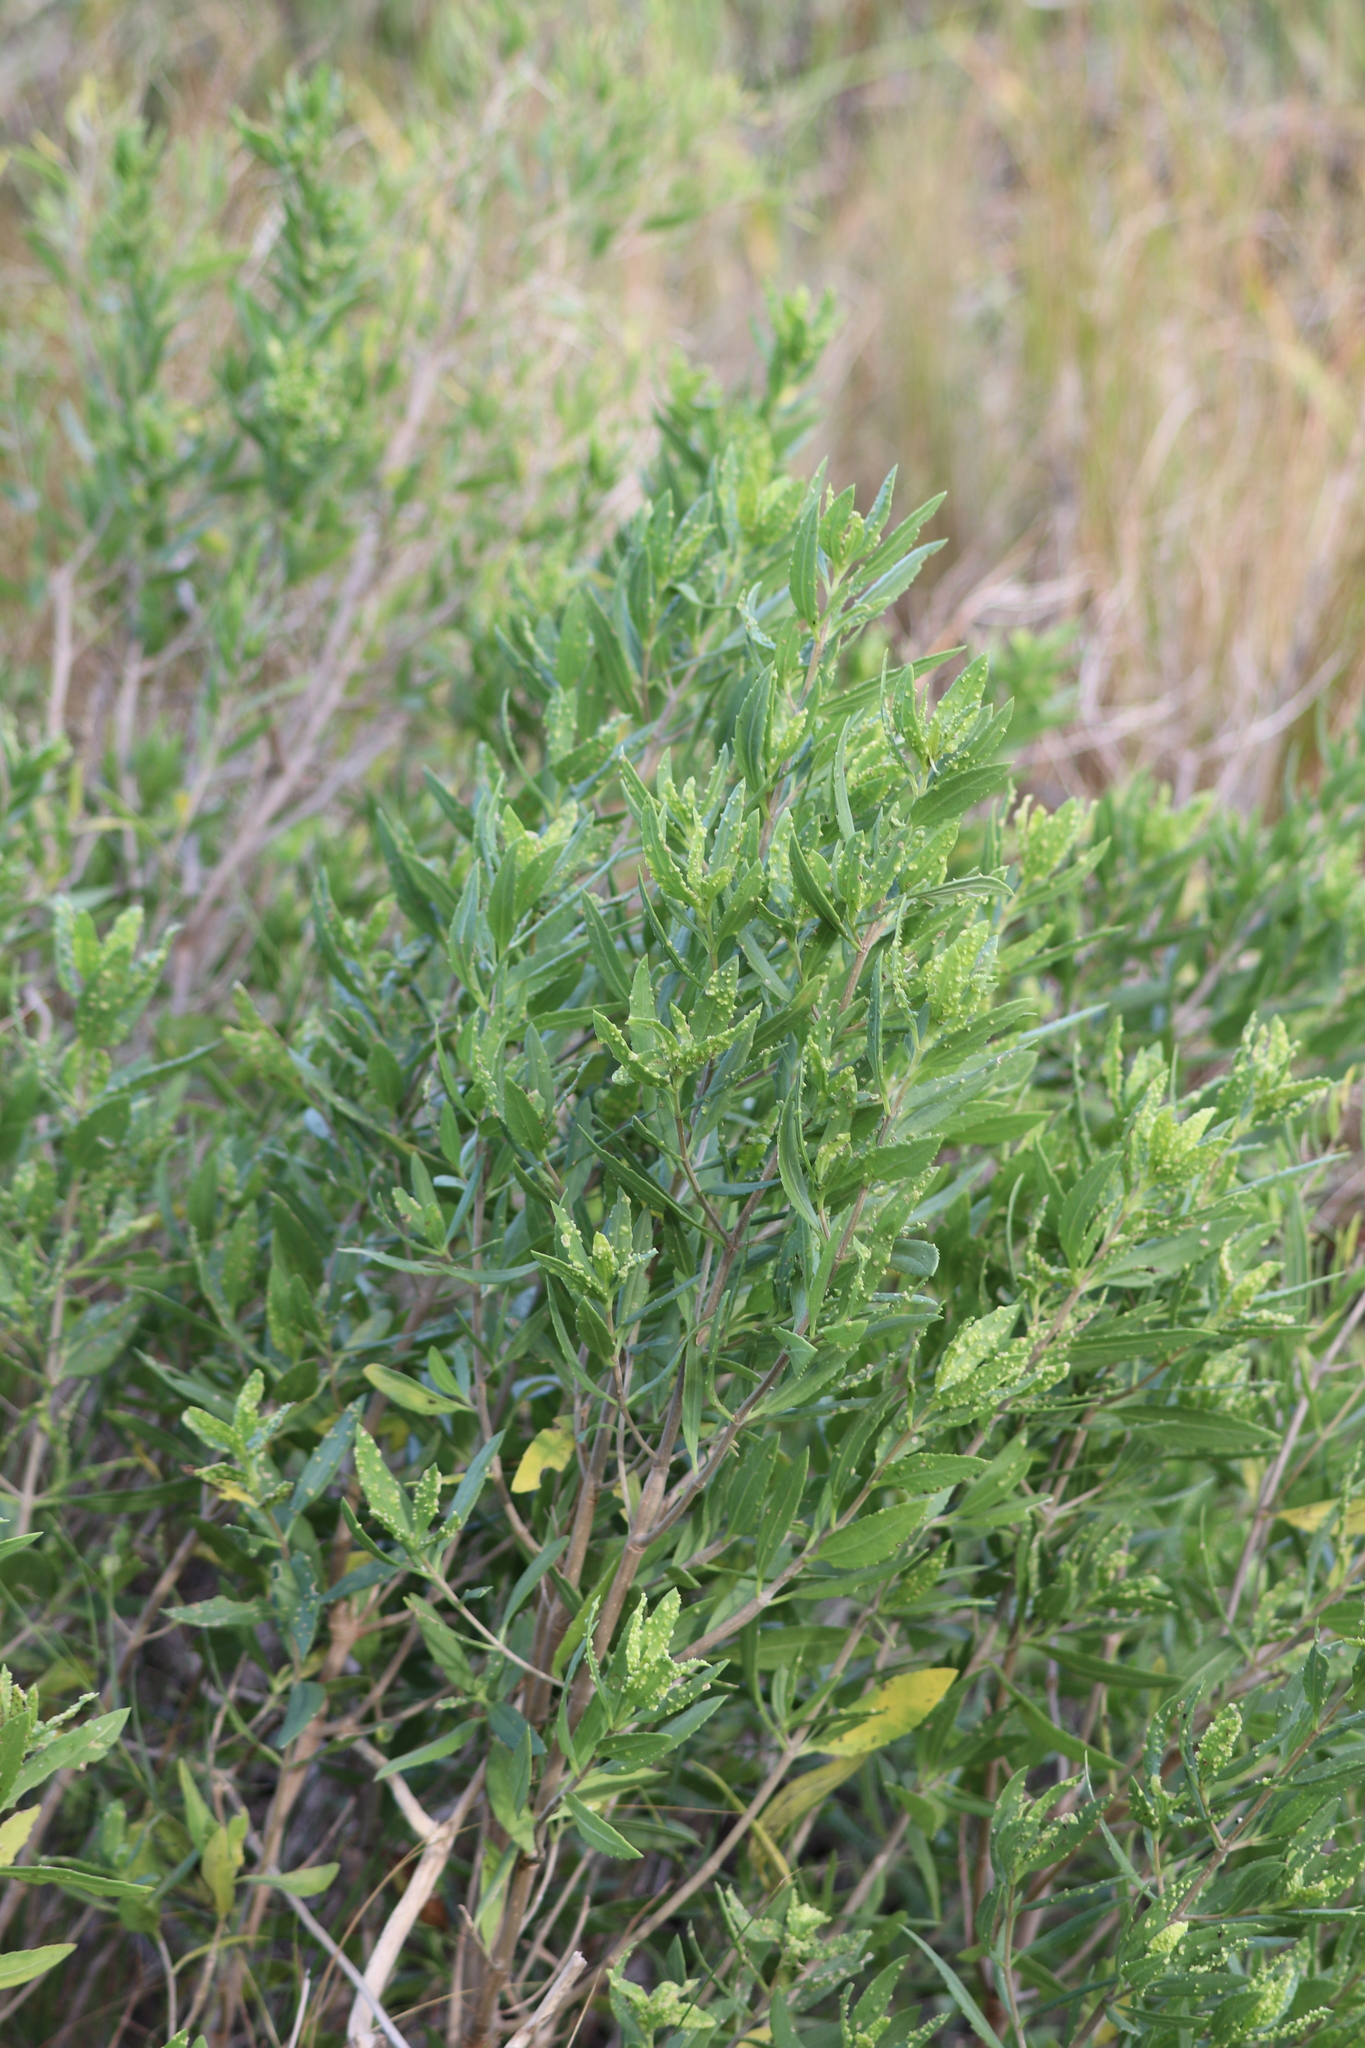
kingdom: Plantae
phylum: Tracheophyta
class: Magnoliopsida
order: Asterales
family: Asteraceae
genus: Iva
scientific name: Iva frutescens
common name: Big-leaved marsh-elder
